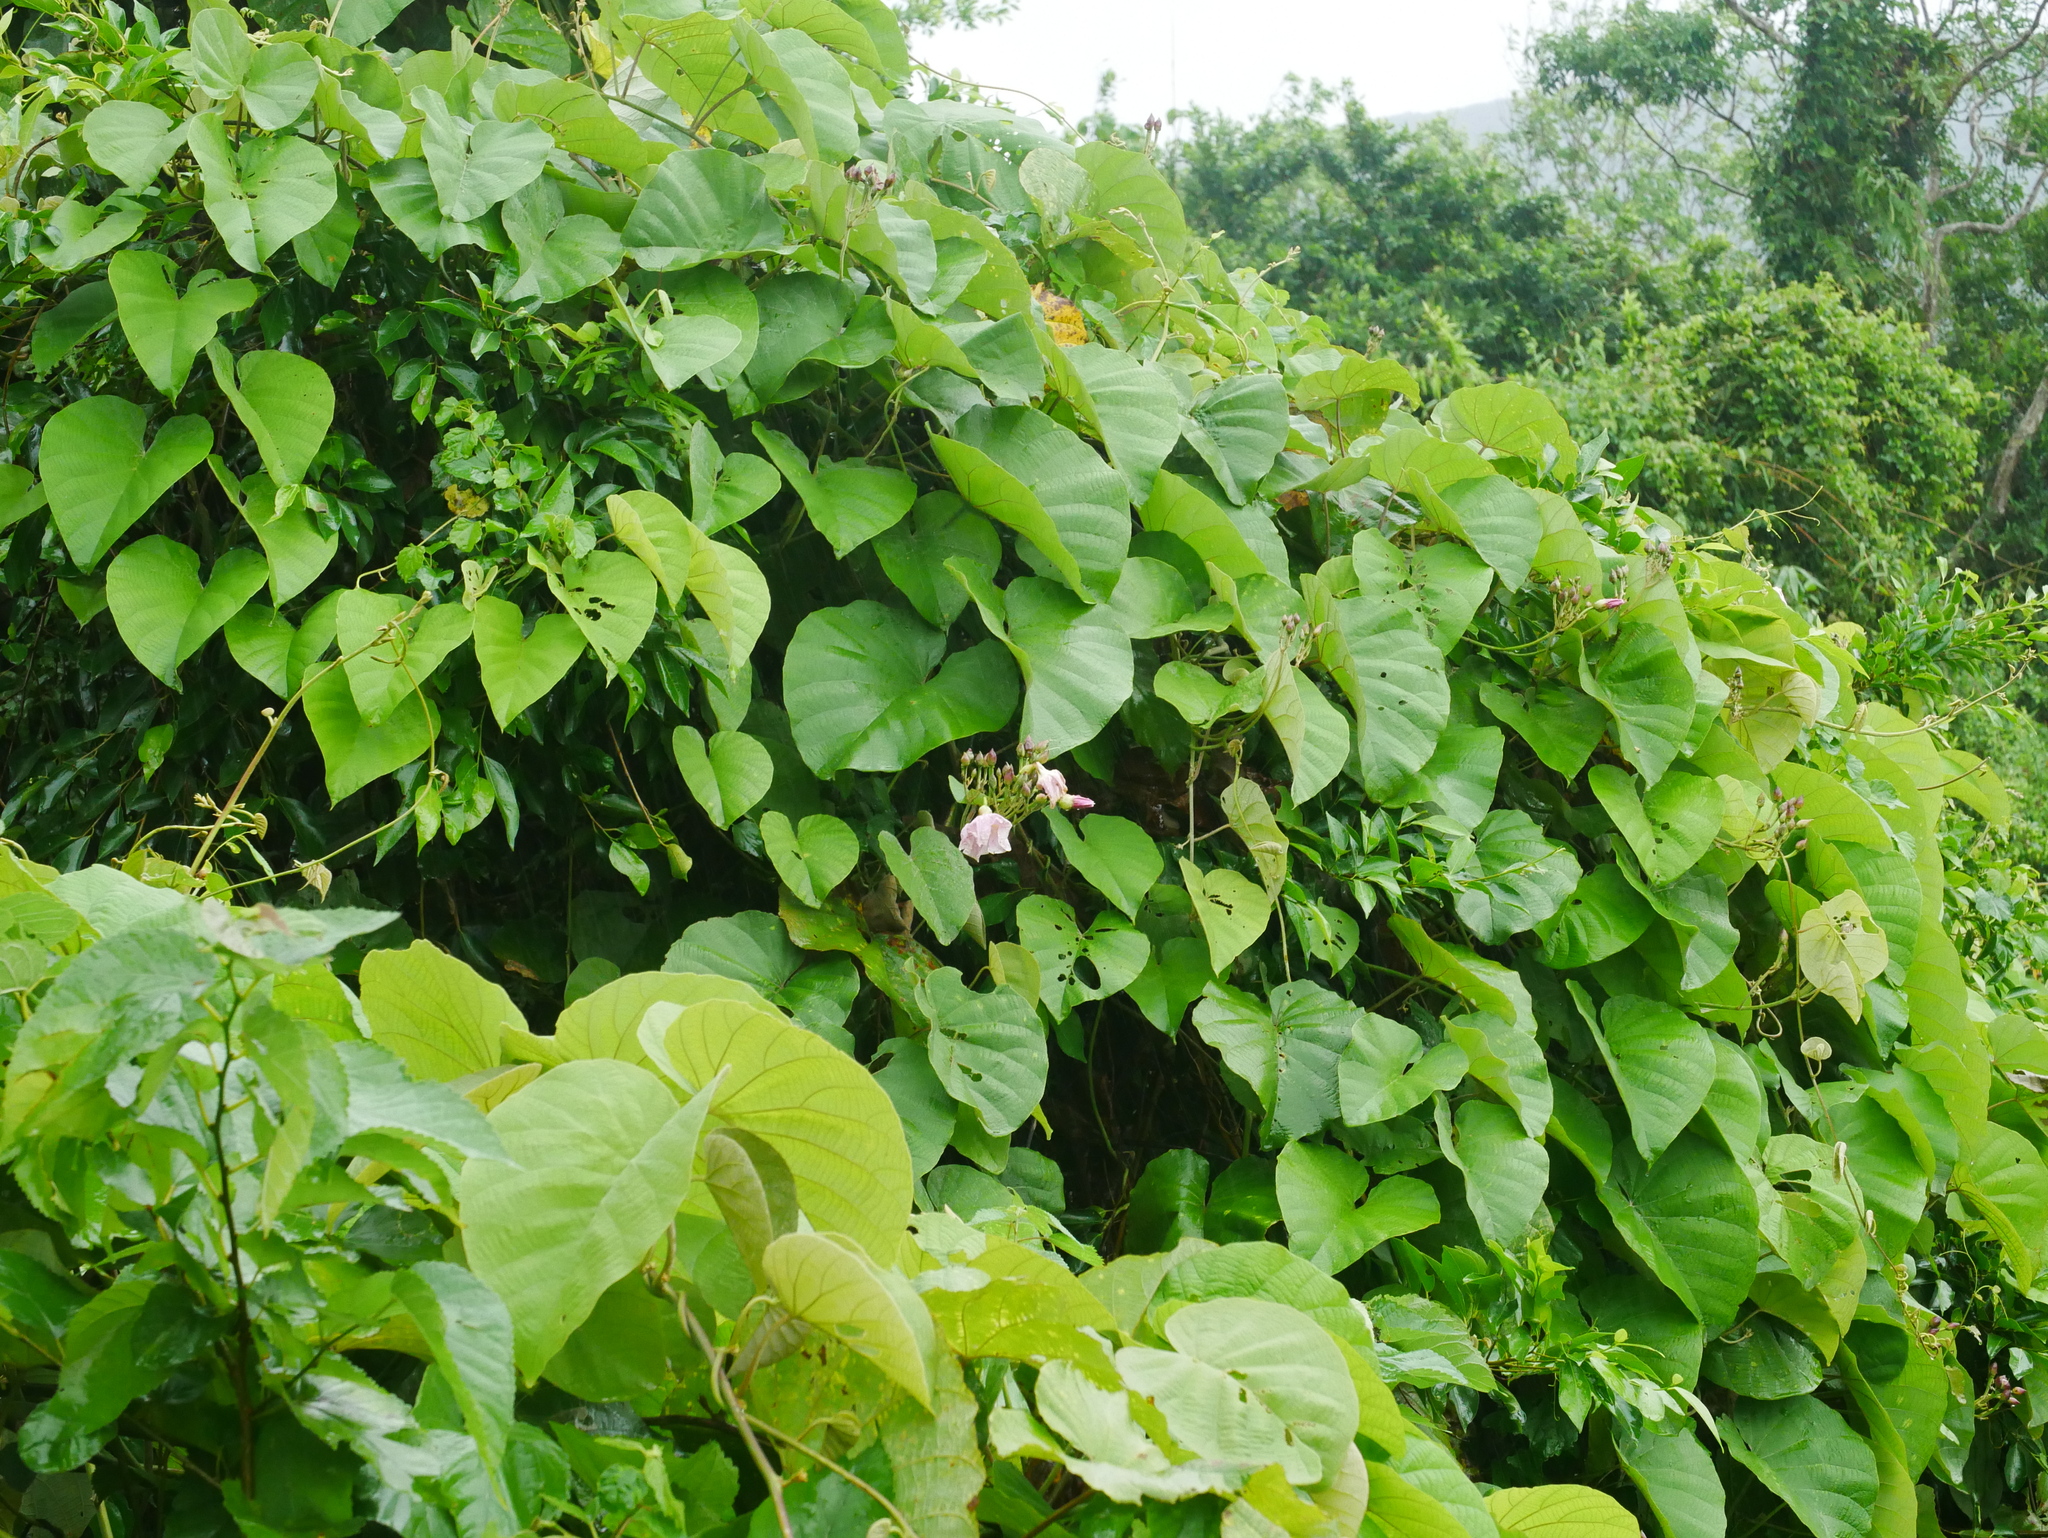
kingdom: Plantae
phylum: Tracheophyta
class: Magnoliopsida
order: Solanales
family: Convolvulaceae
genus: Decalobanthus
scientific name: Decalobanthus distillatorius
